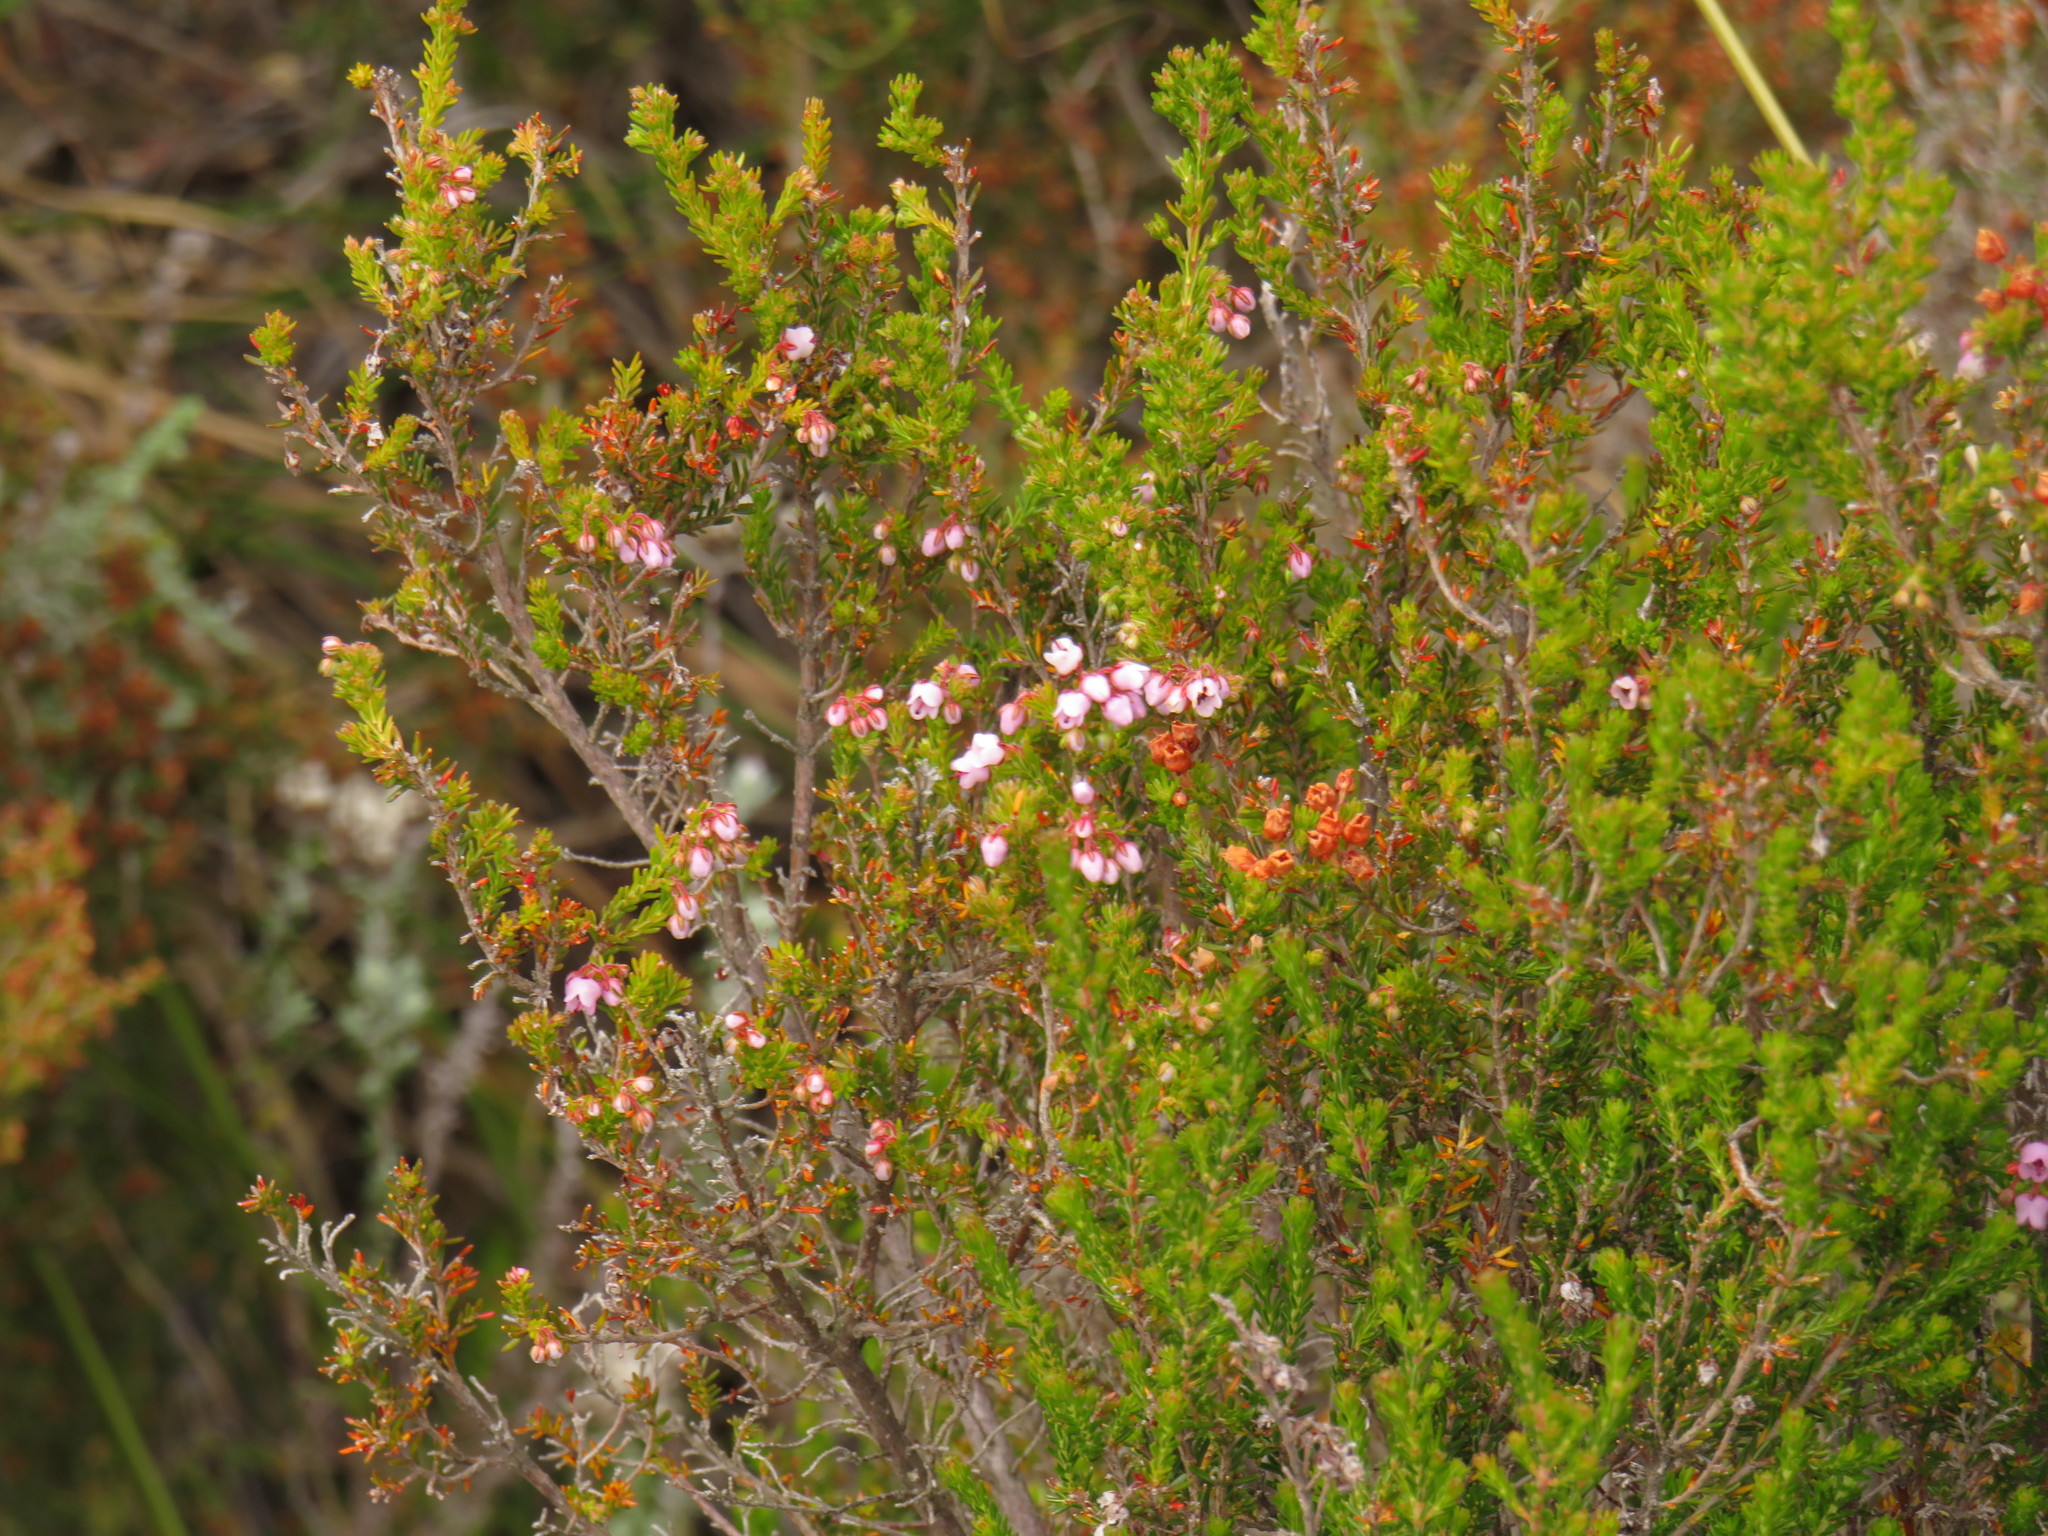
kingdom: Plantae
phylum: Tracheophyta
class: Magnoliopsida
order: Ericales
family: Ericaceae
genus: Erica
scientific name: Erica curvirostris
